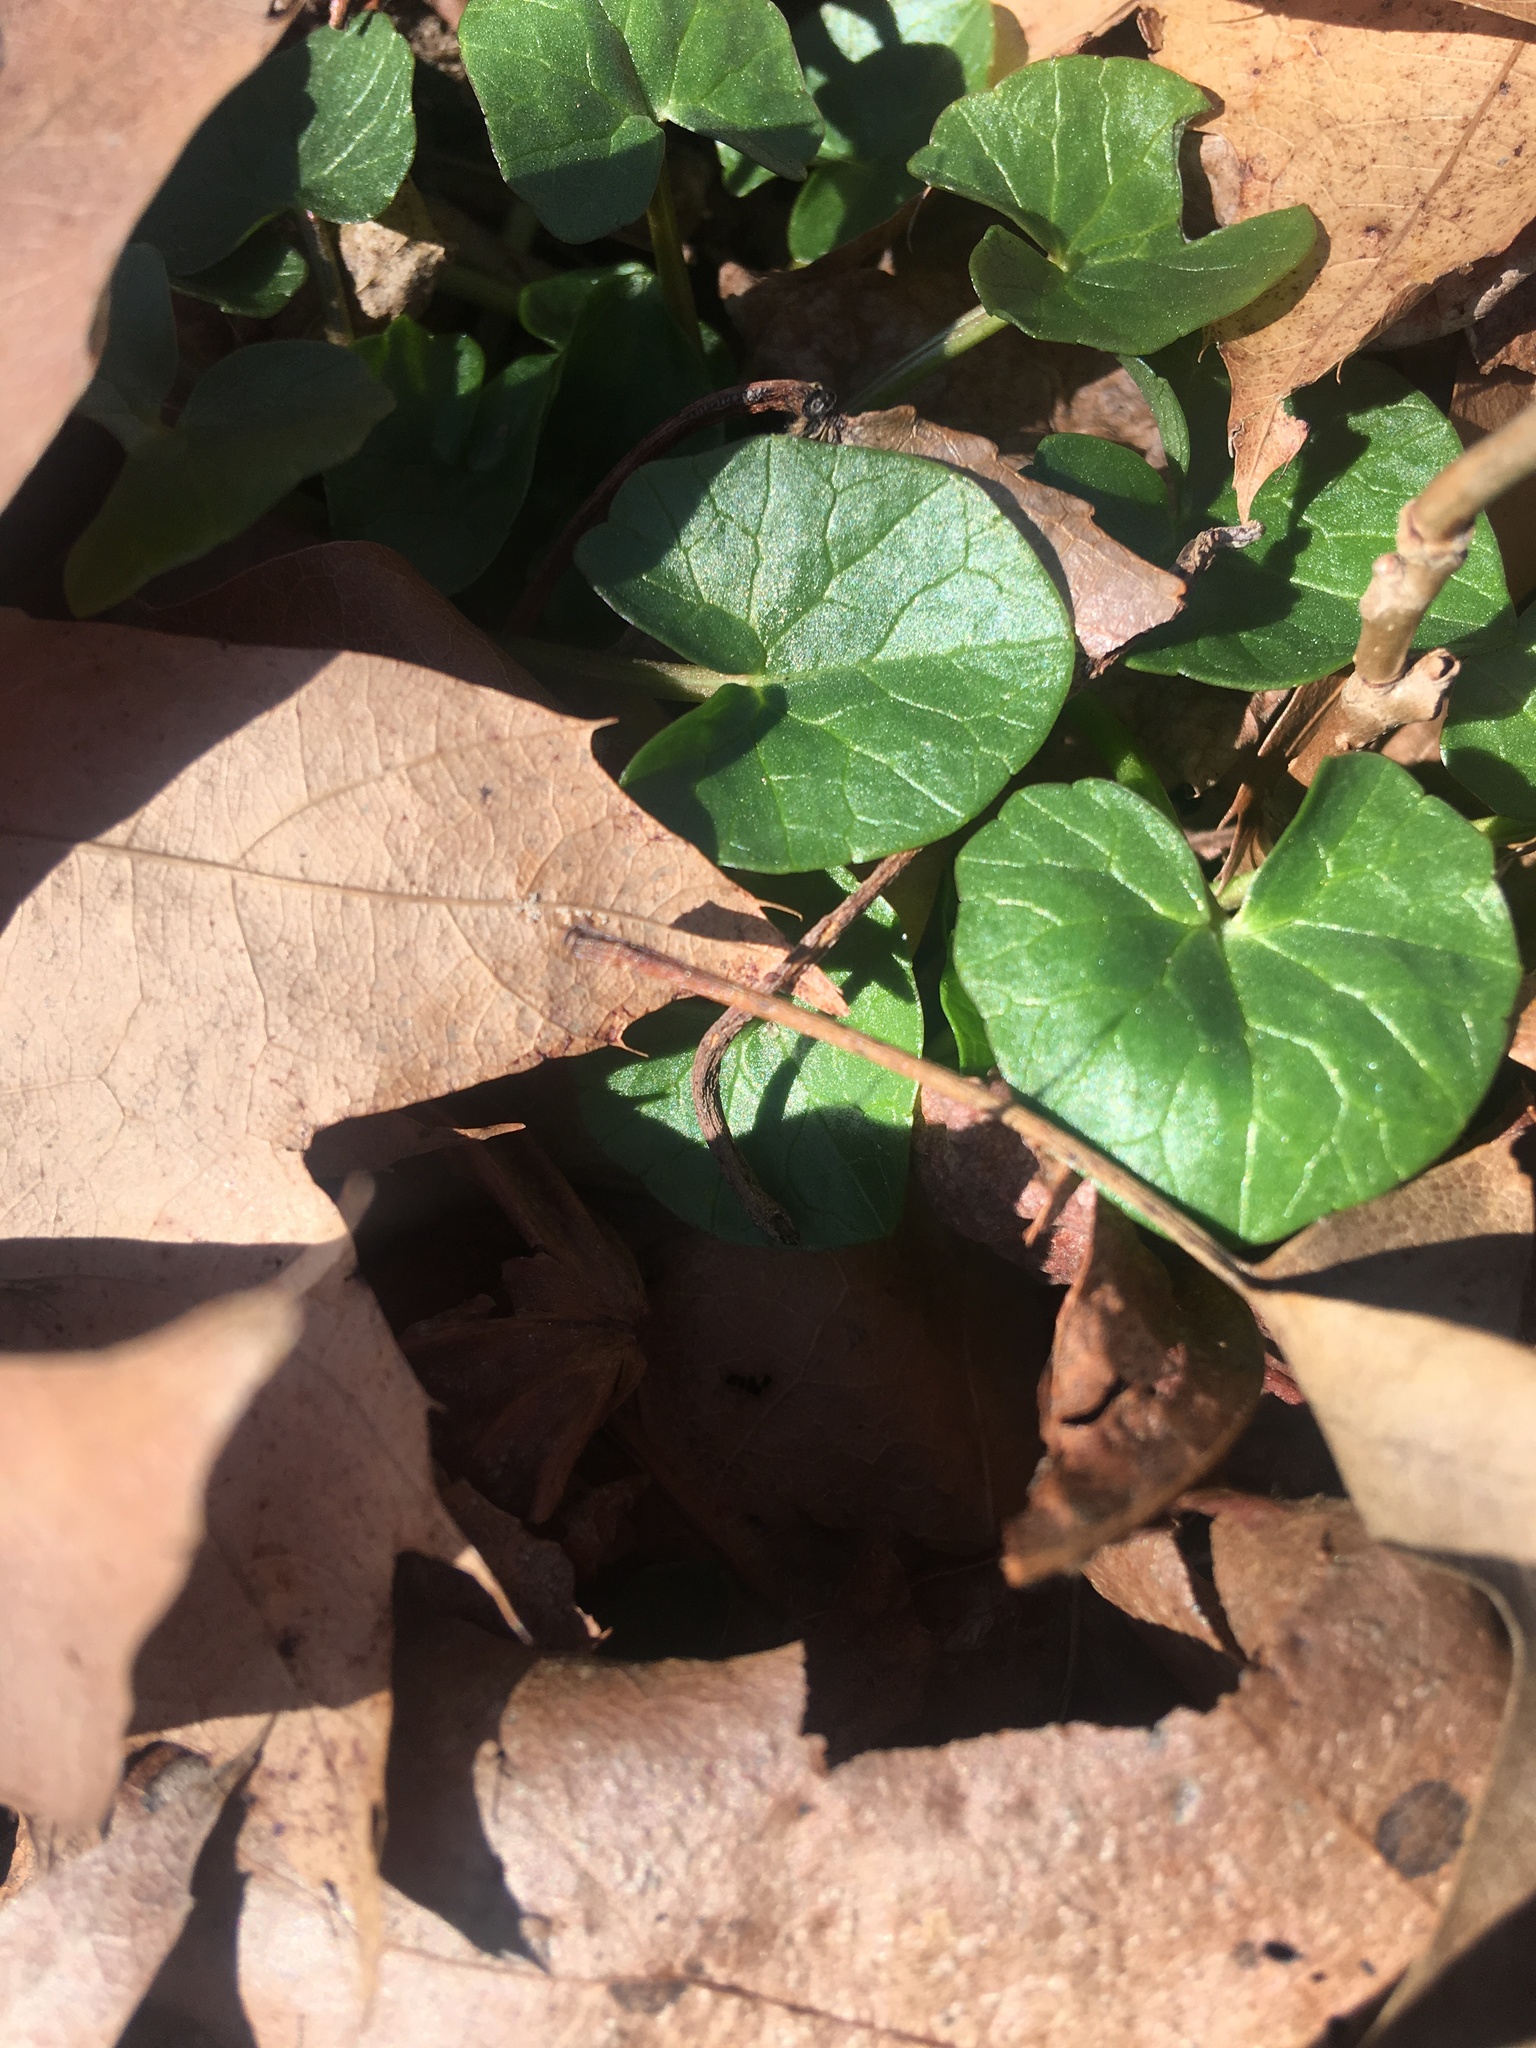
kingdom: Plantae
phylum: Tracheophyta
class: Magnoliopsida
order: Ranunculales
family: Ranunculaceae
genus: Ficaria
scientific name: Ficaria verna
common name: Lesser celandine
